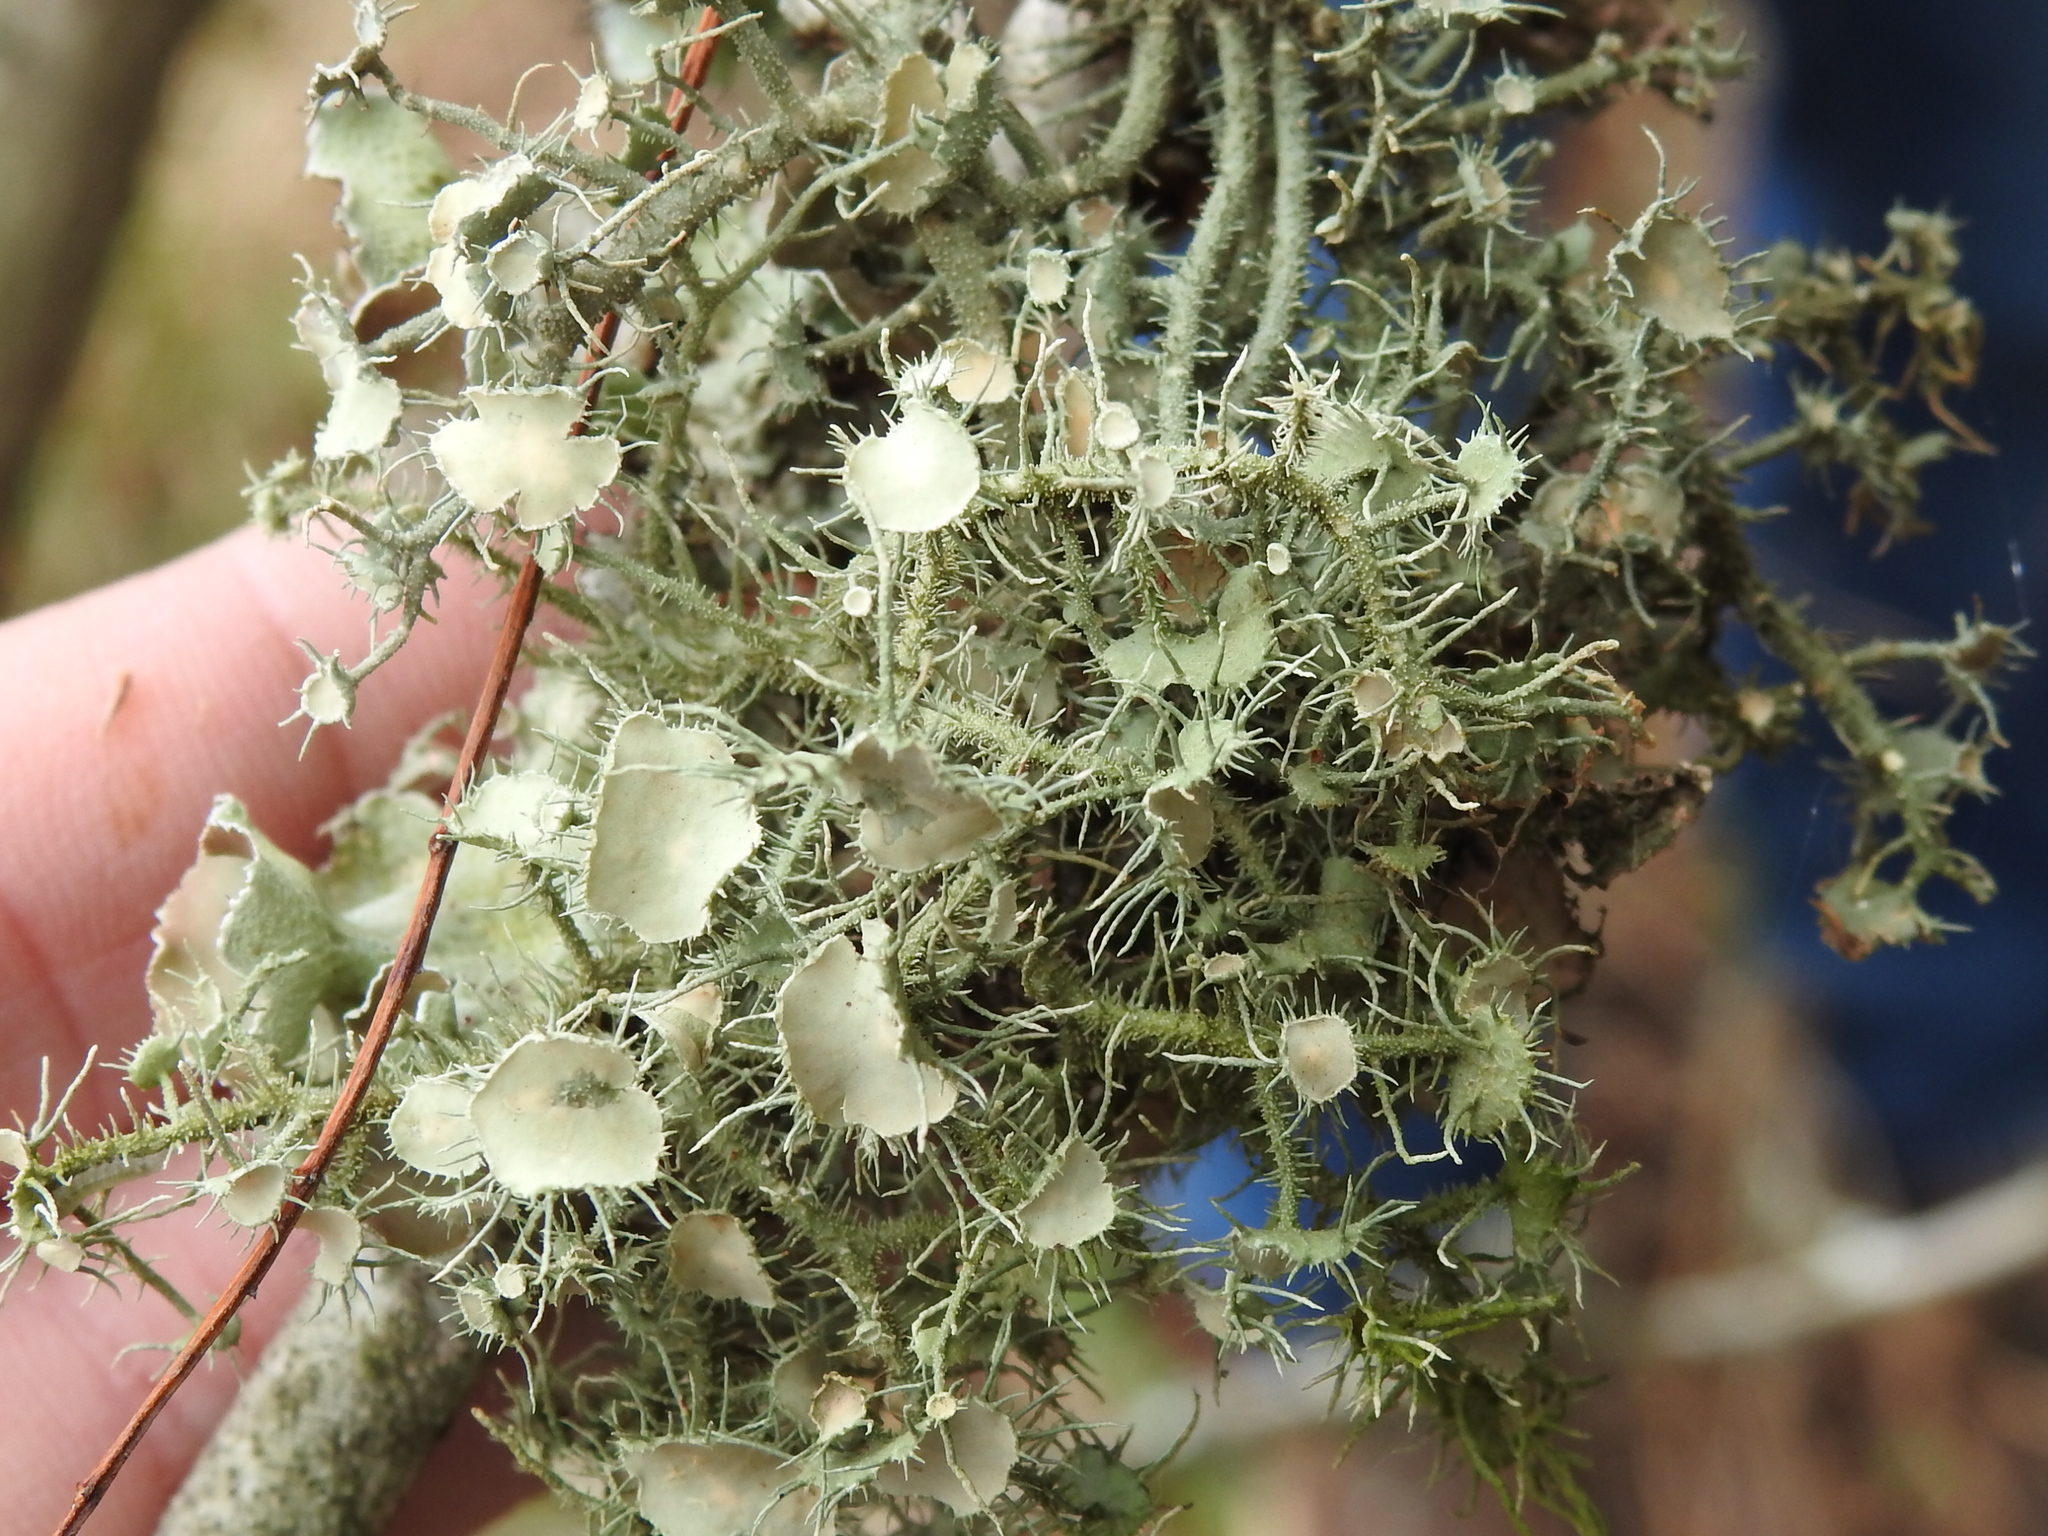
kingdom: Fungi
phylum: Ascomycota
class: Lecanoromycetes
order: Lecanorales
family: Parmeliaceae
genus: Usnea
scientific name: Usnea strigosa
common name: Bushy beard lichen
